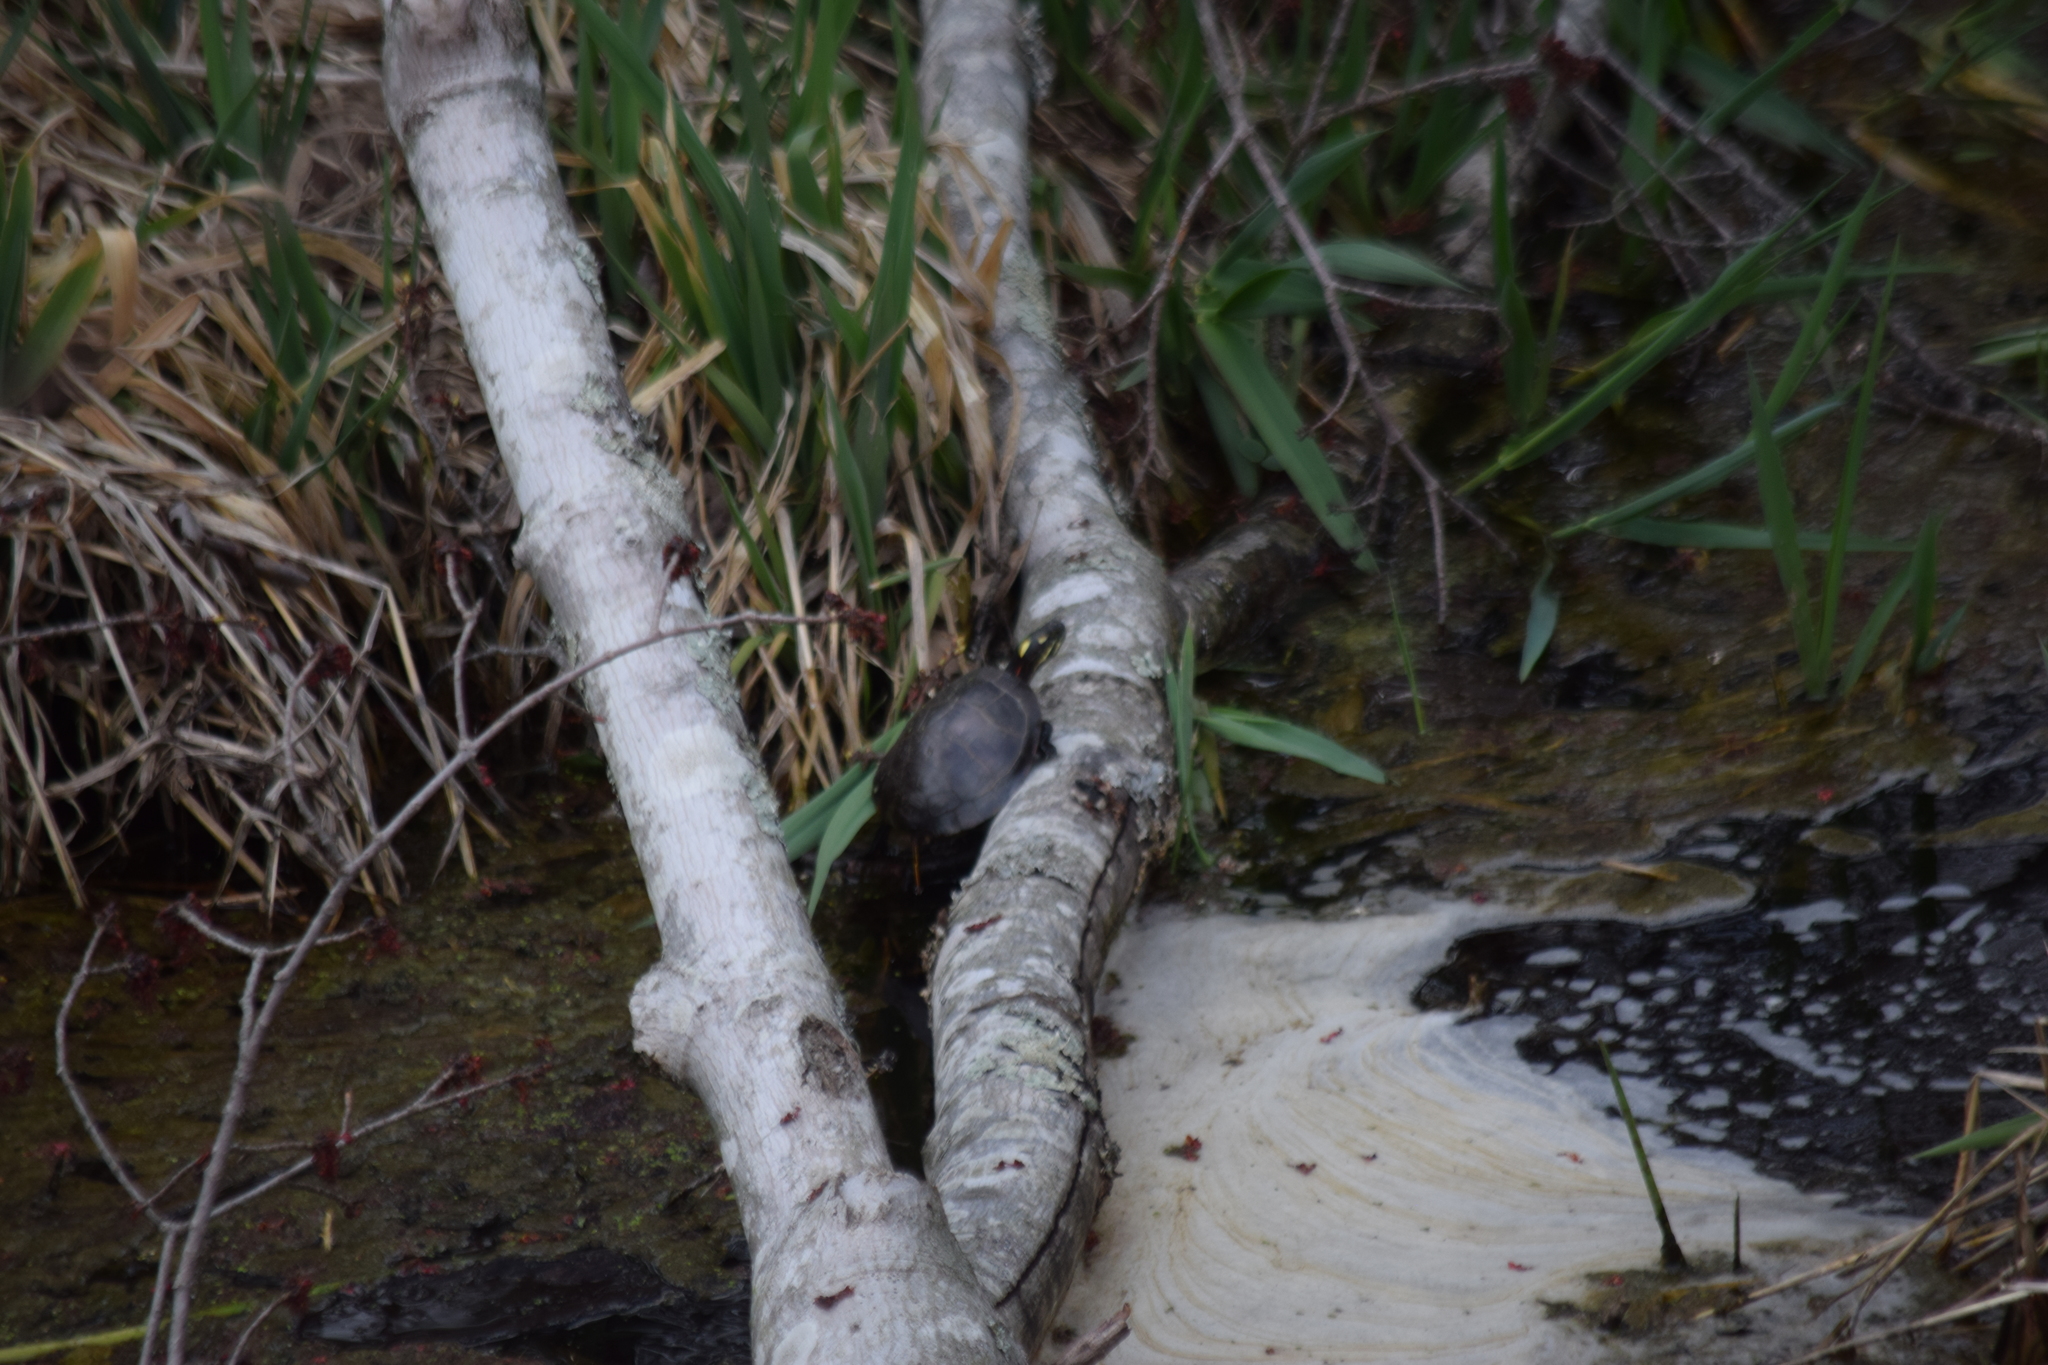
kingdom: Animalia
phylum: Chordata
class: Testudines
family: Emydidae
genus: Chrysemys
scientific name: Chrysemys picta
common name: Painted turtle
